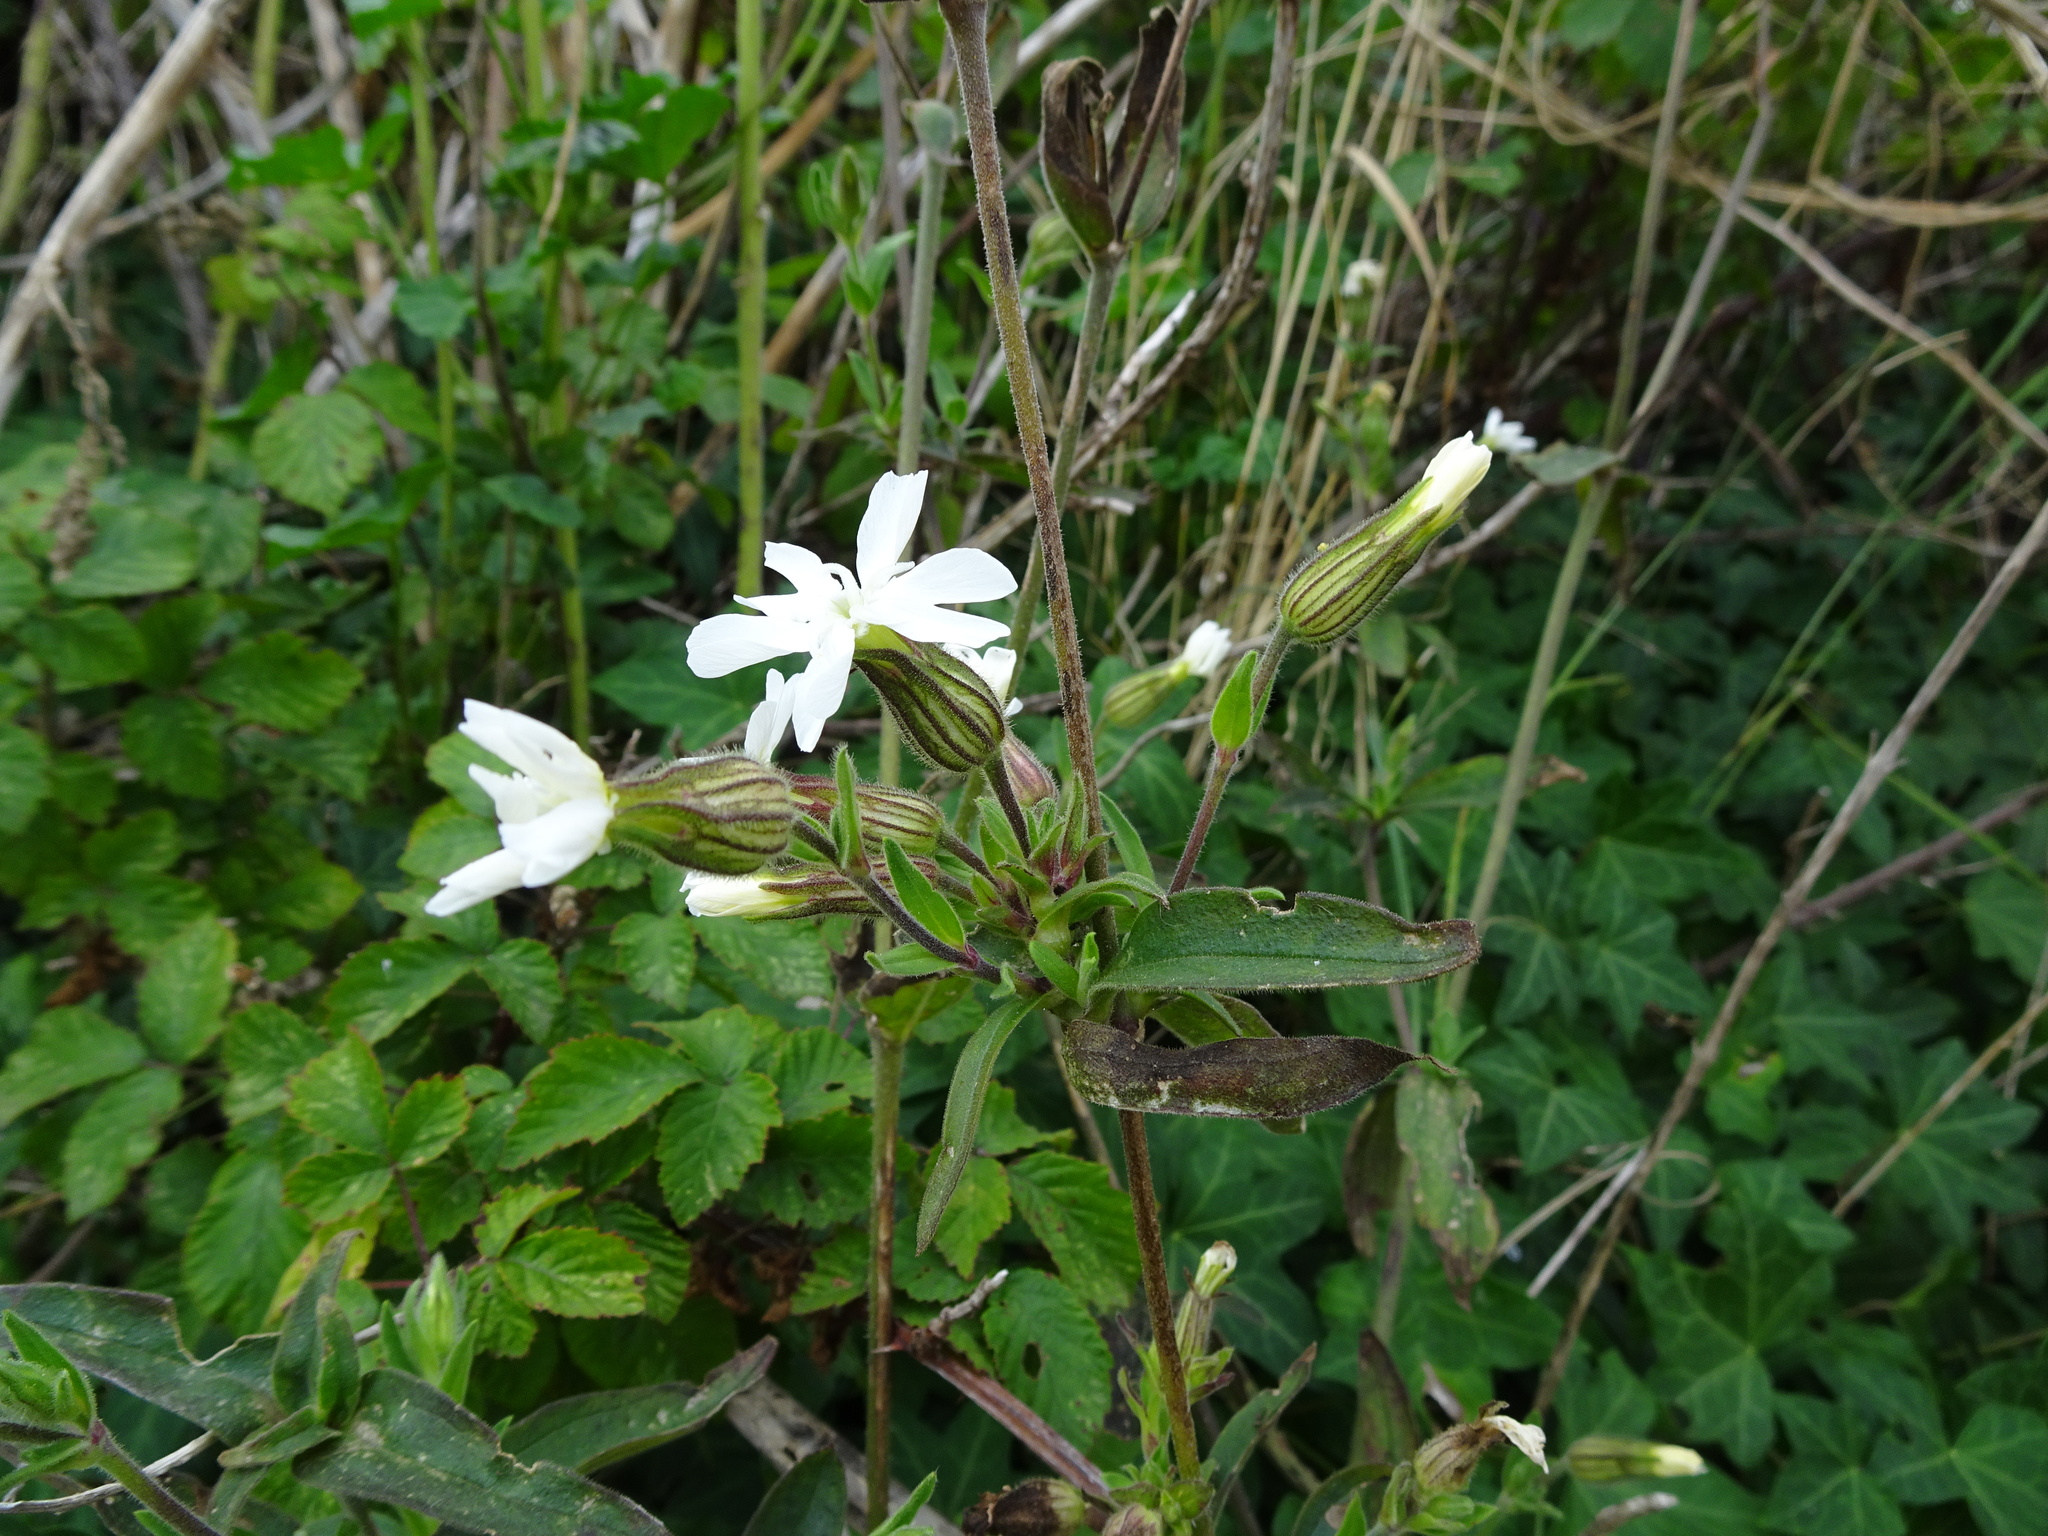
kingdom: Plantae
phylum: Tracheophyta
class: Magnoliopsida
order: Caryophyllales
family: Caryophyllaceae
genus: Silene
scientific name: Silene latifolia
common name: White campion
